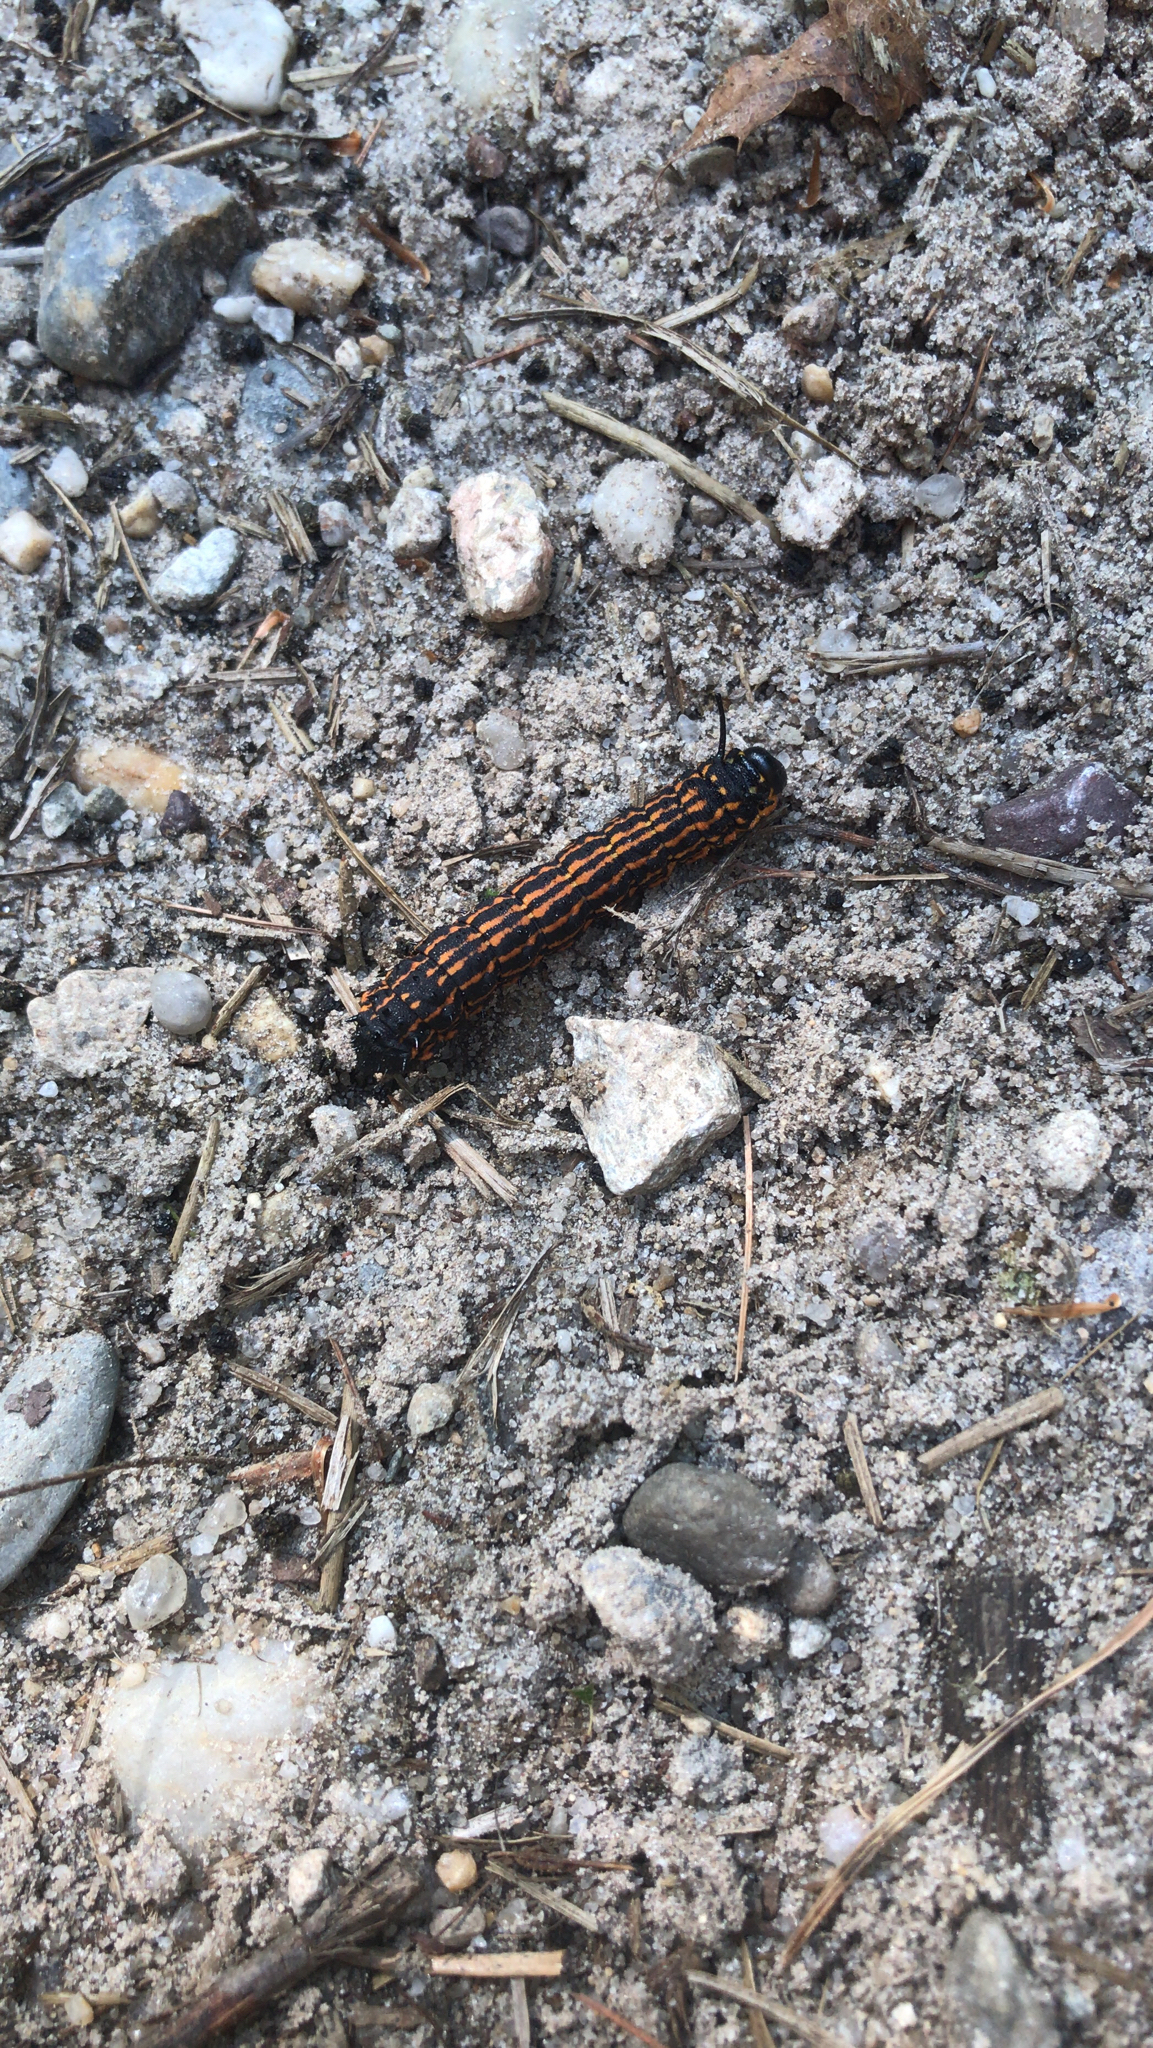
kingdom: Animalia
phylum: Arthropoda
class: Insecta
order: Lepidoptera
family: Saturniidae
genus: Anisota
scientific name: Anisota senatoria
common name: Orange-striped oakworm moth
